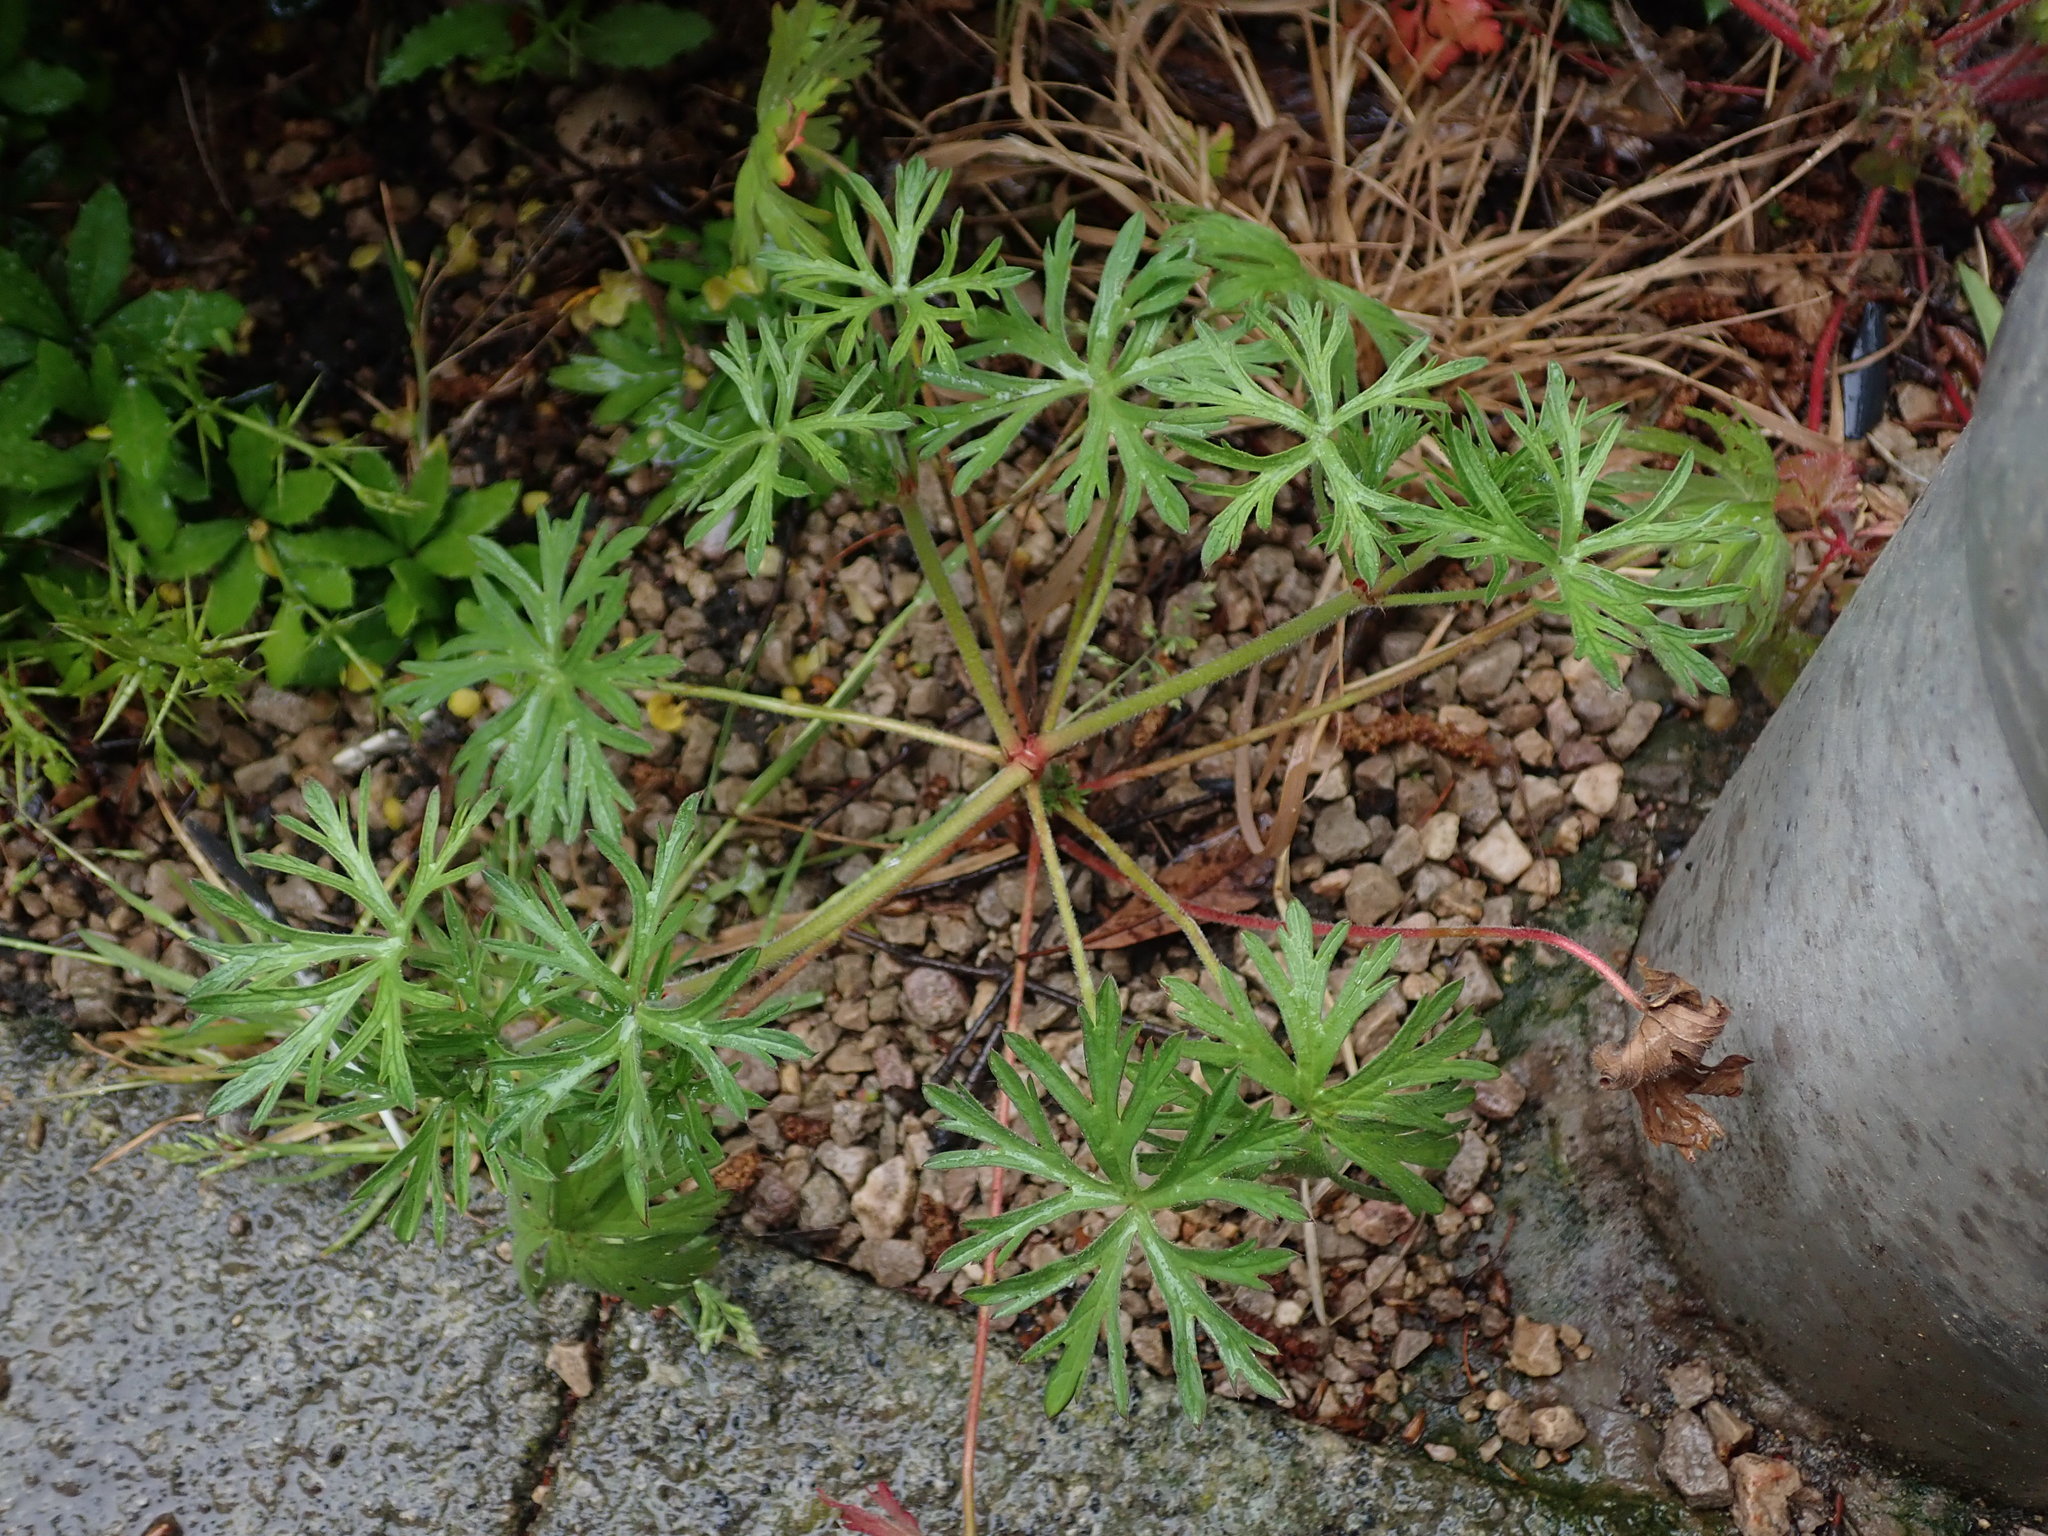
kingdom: Plantae
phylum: Tracheophyta
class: Magnoliopsida
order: Geraniales
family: Geraniaceae
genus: Geranium
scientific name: Geranium dissectum
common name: Cut-leaved crane's-bill
